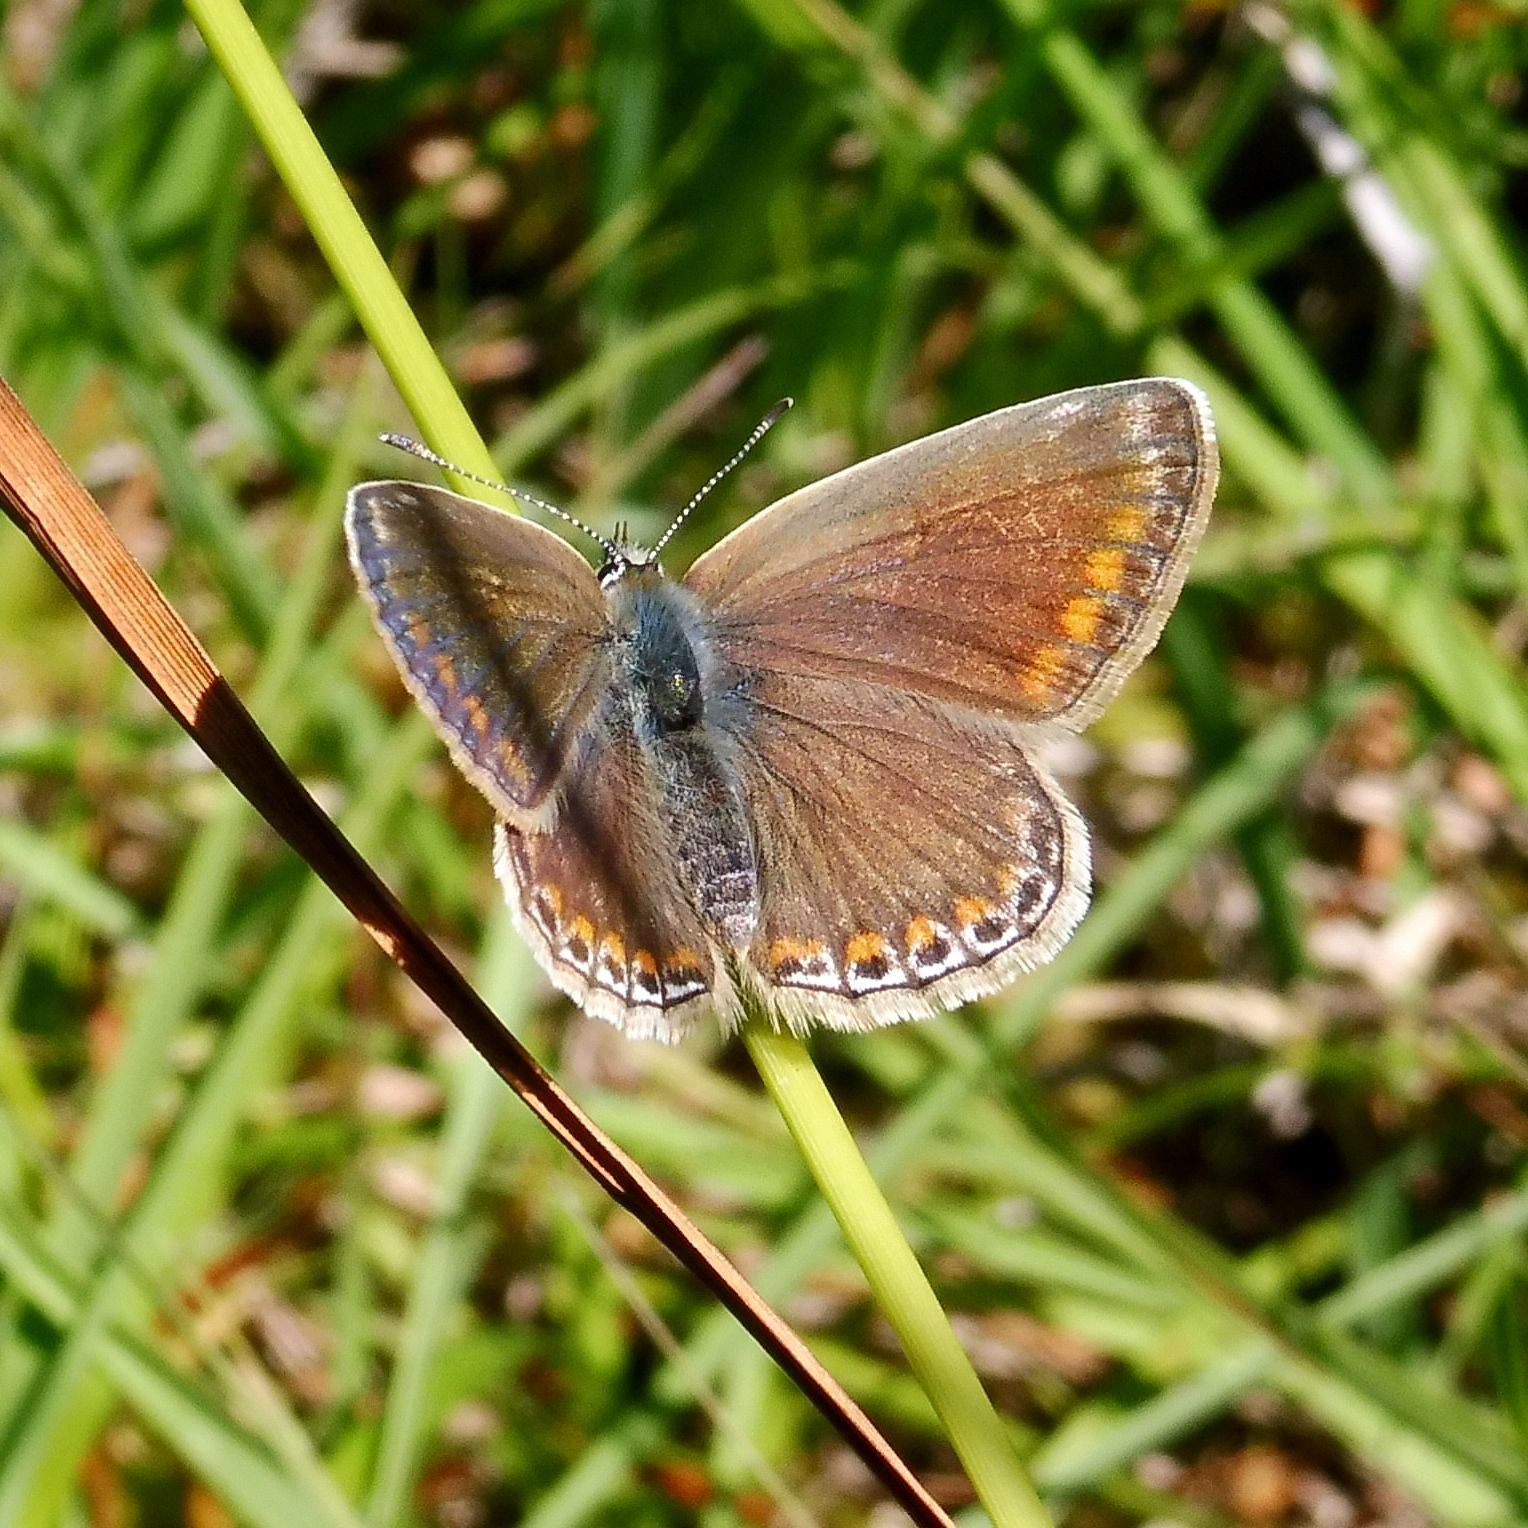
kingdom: Animalia
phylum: Arthropoda
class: Insecta
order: Lepidoptera
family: Lycaenidae
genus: Polyommatus
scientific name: Polyommatus icarus
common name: Common blue
